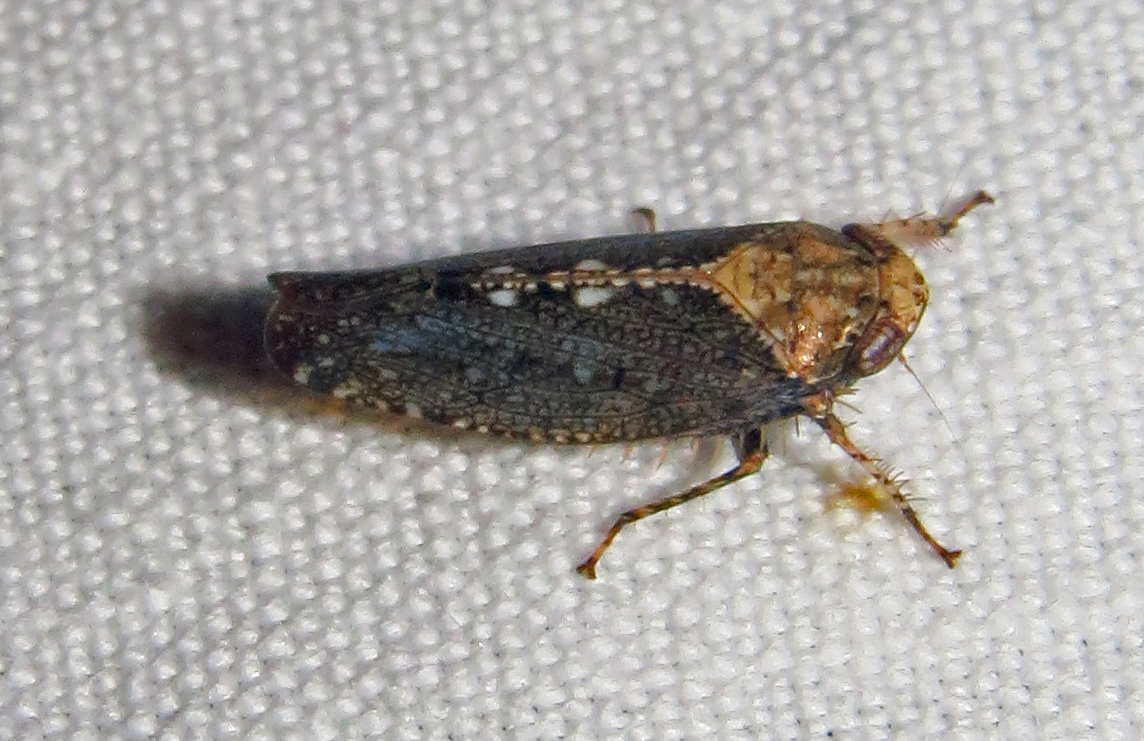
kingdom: Animalia
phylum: Arthropoda
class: Insecta
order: Hemiptera
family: Cicadellidae
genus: Excultanus
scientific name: Excultanus excultus
